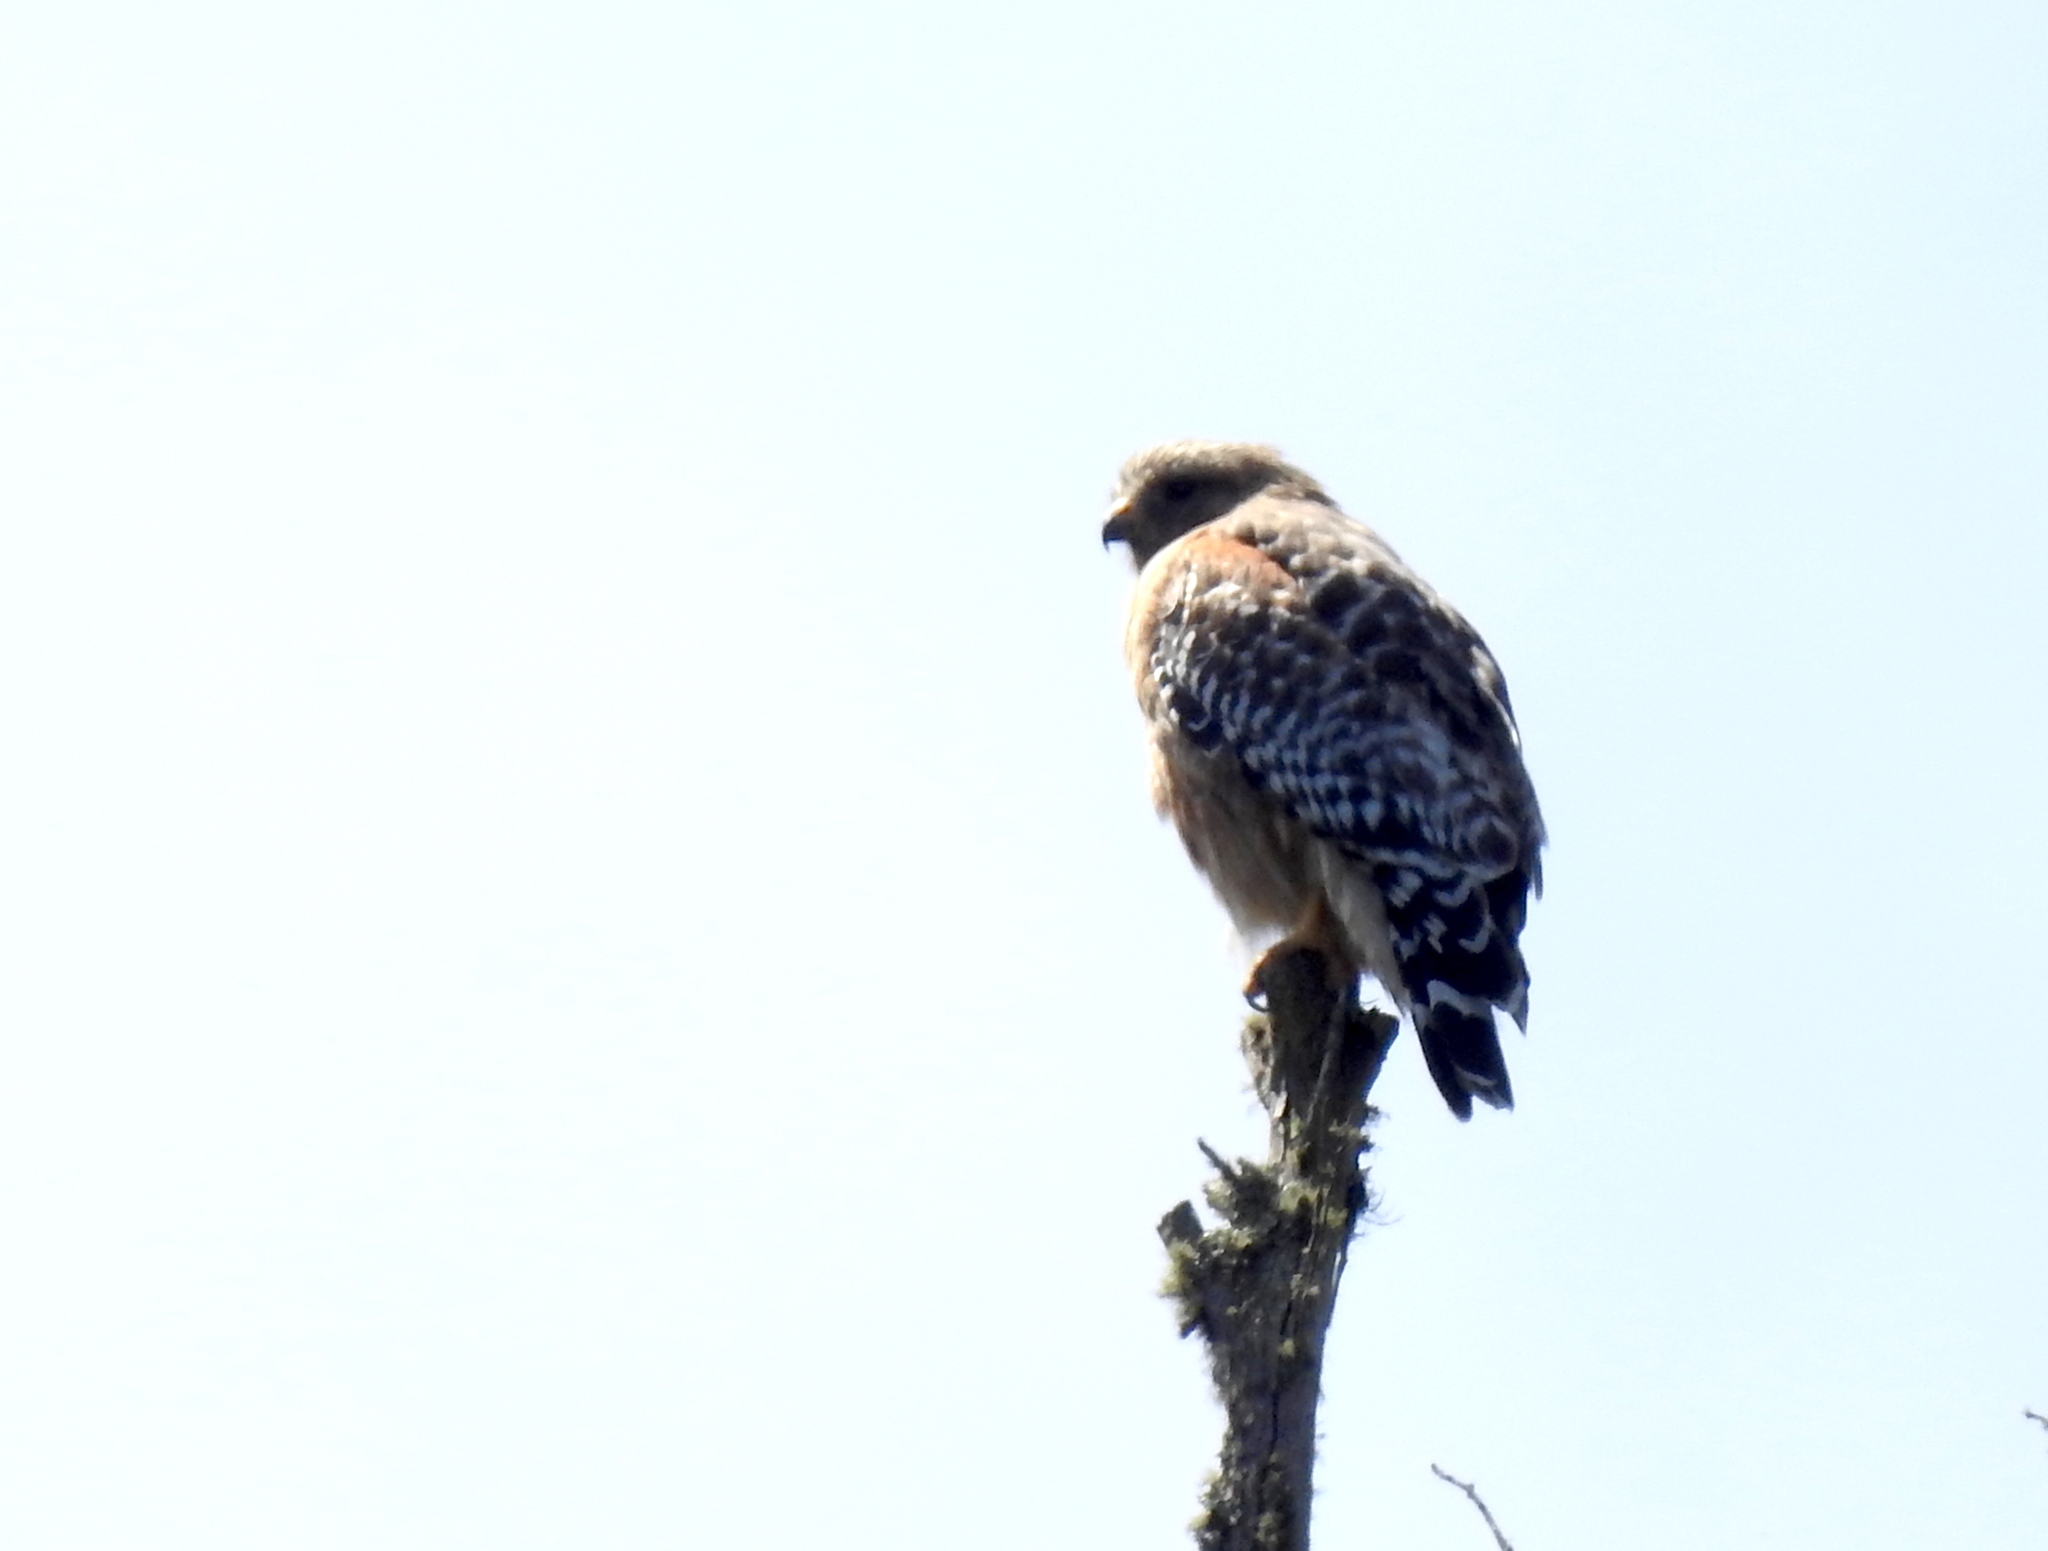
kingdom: Animalia
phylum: Chordata
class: Aves
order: Accipitriformes
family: Accipitridae
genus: Buteo
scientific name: Buteo lineatus
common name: Red-shouldered hawk
